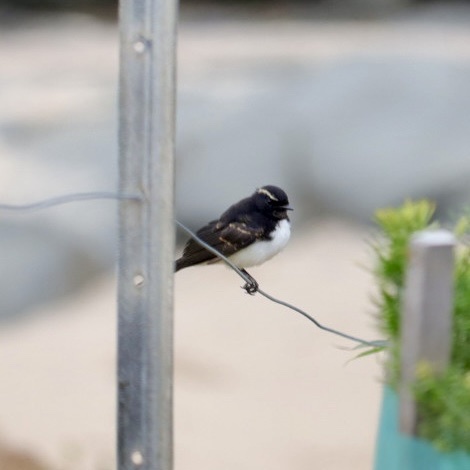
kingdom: Animalia
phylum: Chordata
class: Aves
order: Passeriformes
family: Rhipiduridae
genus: Rhipidura
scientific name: Rhipidura leucophrys
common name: Willie wagtail
